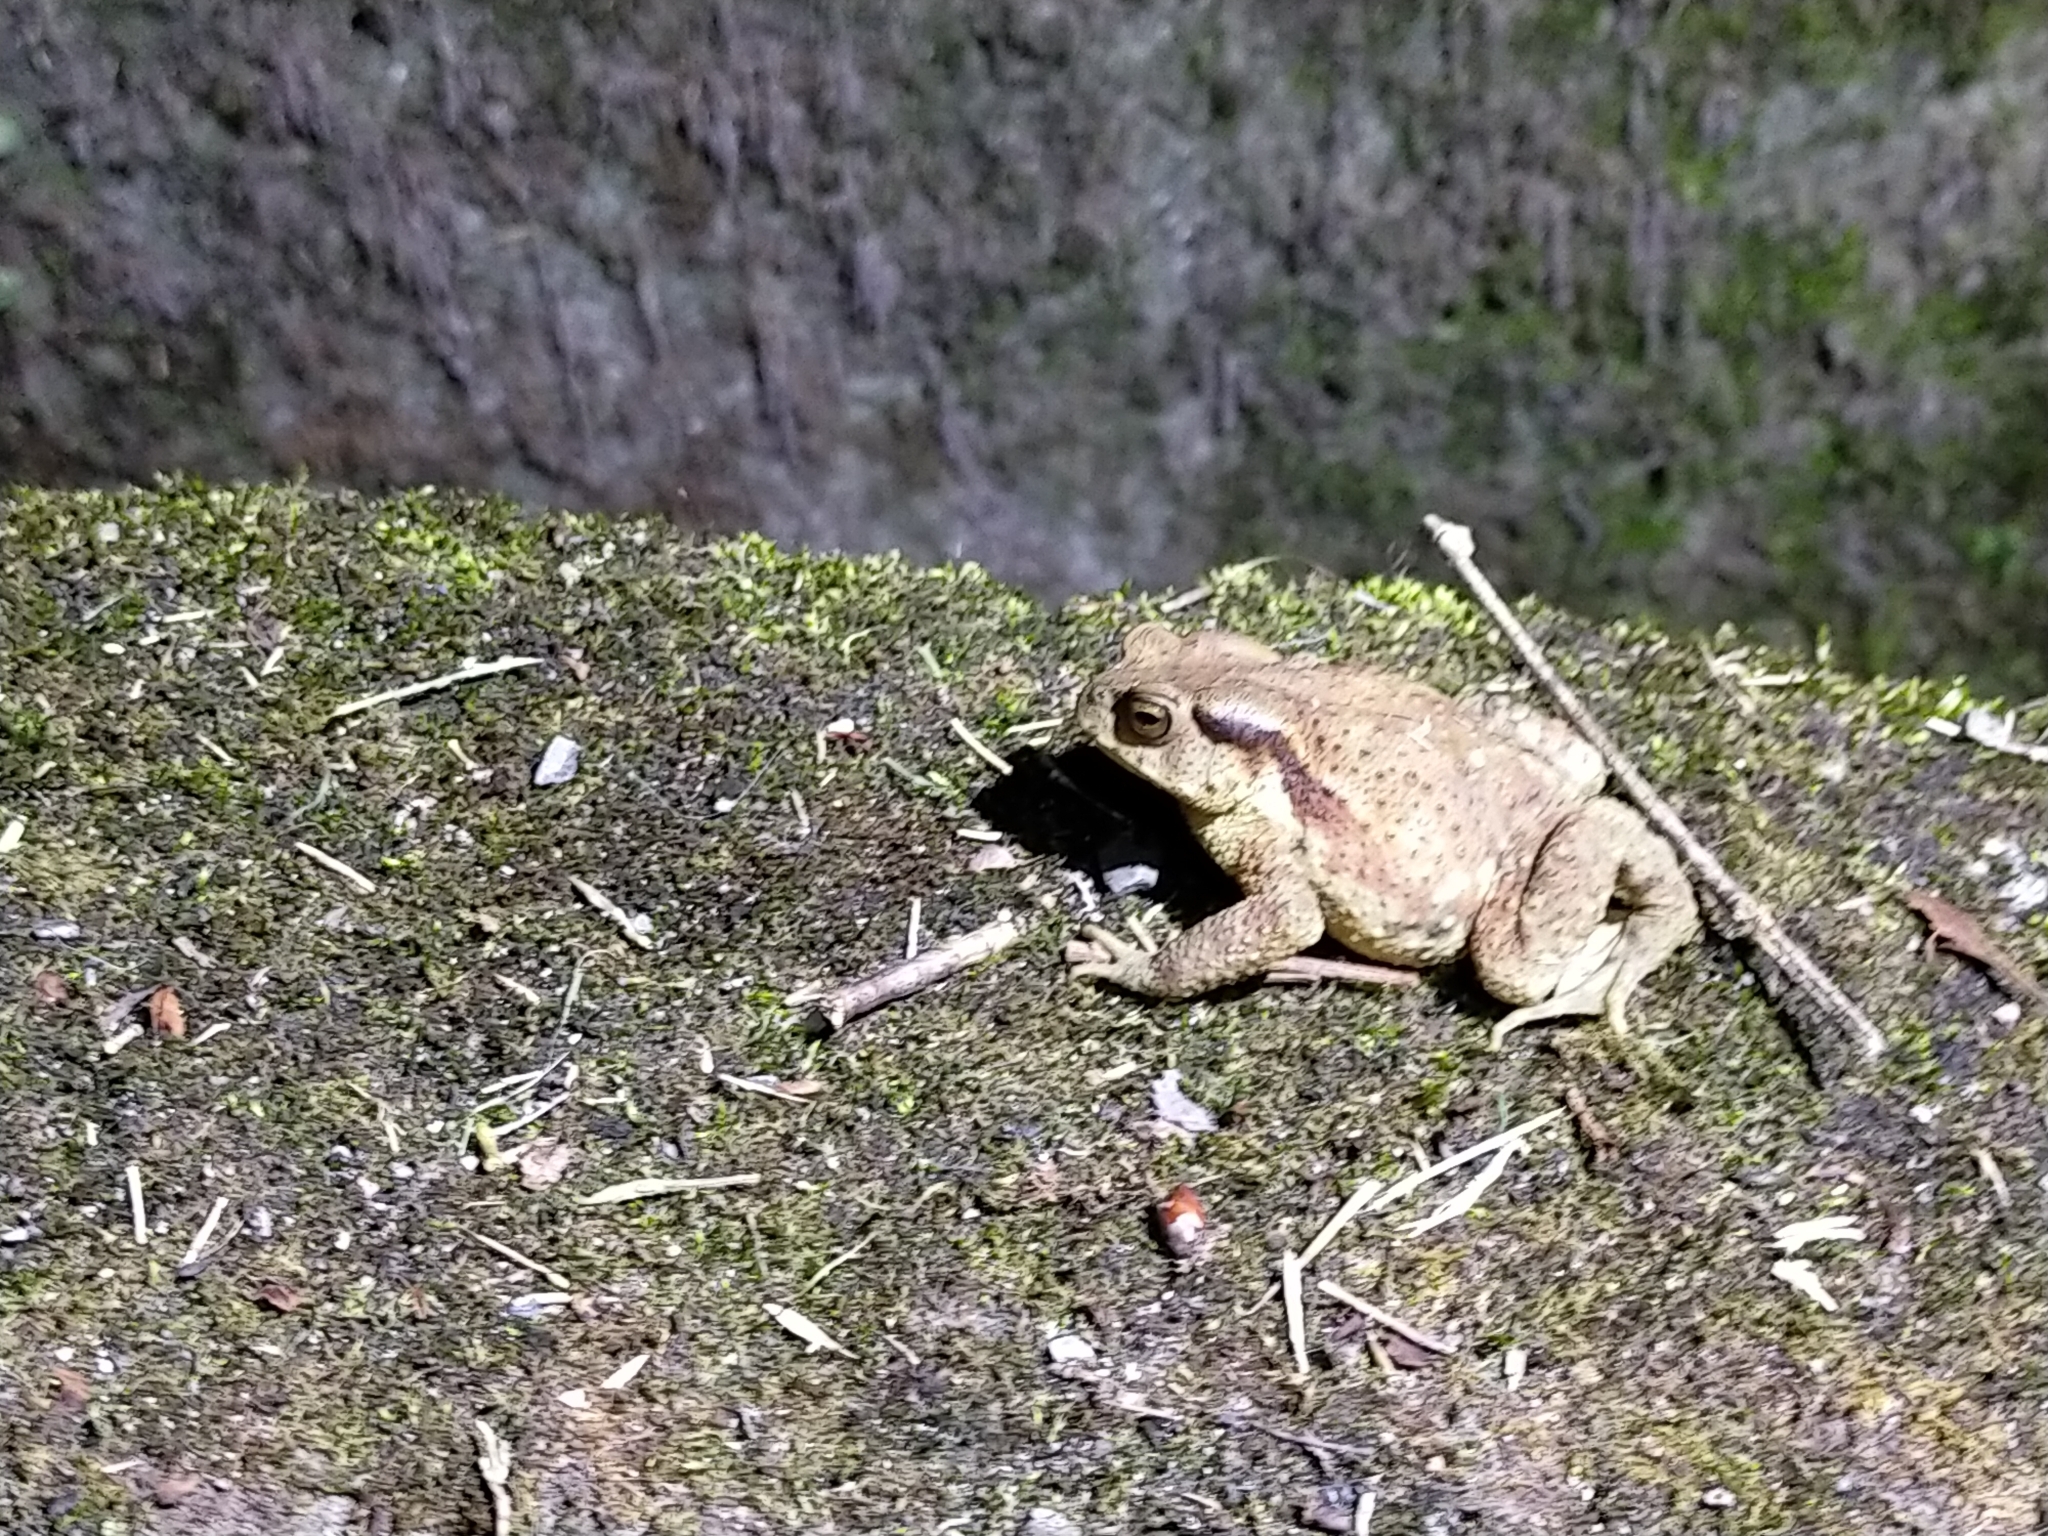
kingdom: Animalia
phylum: Chordata
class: Amphibia
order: Anura
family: Bufonidae
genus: Bufo
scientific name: Bufo bankorensis
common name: Bankor toad
